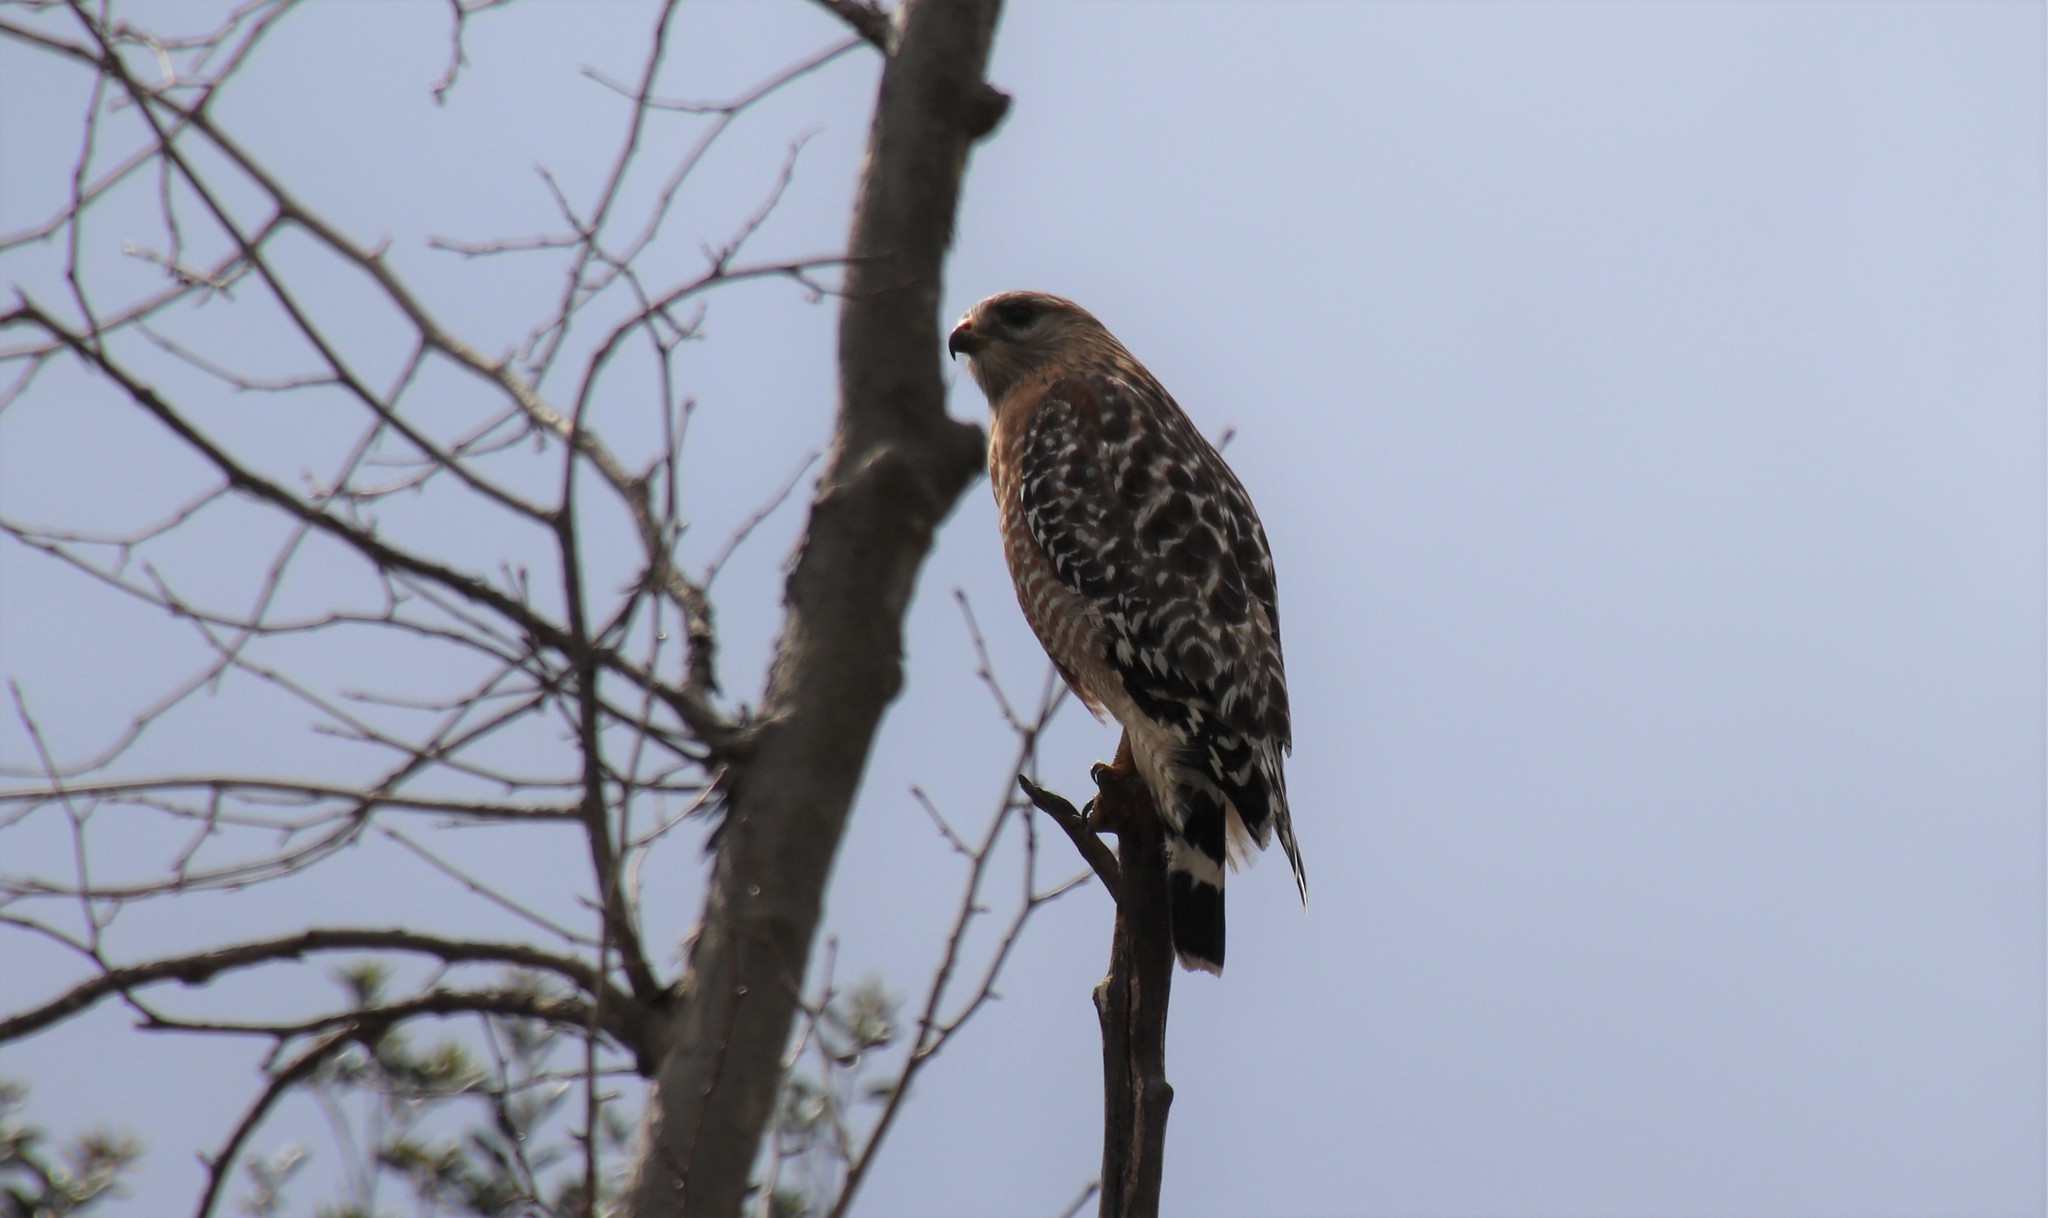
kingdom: Animalia
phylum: Chordata
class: Aves
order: Accipitriformes
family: Accipitridae
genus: Buteo
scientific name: Buteo lineatus
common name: Red-shouldered hawk
